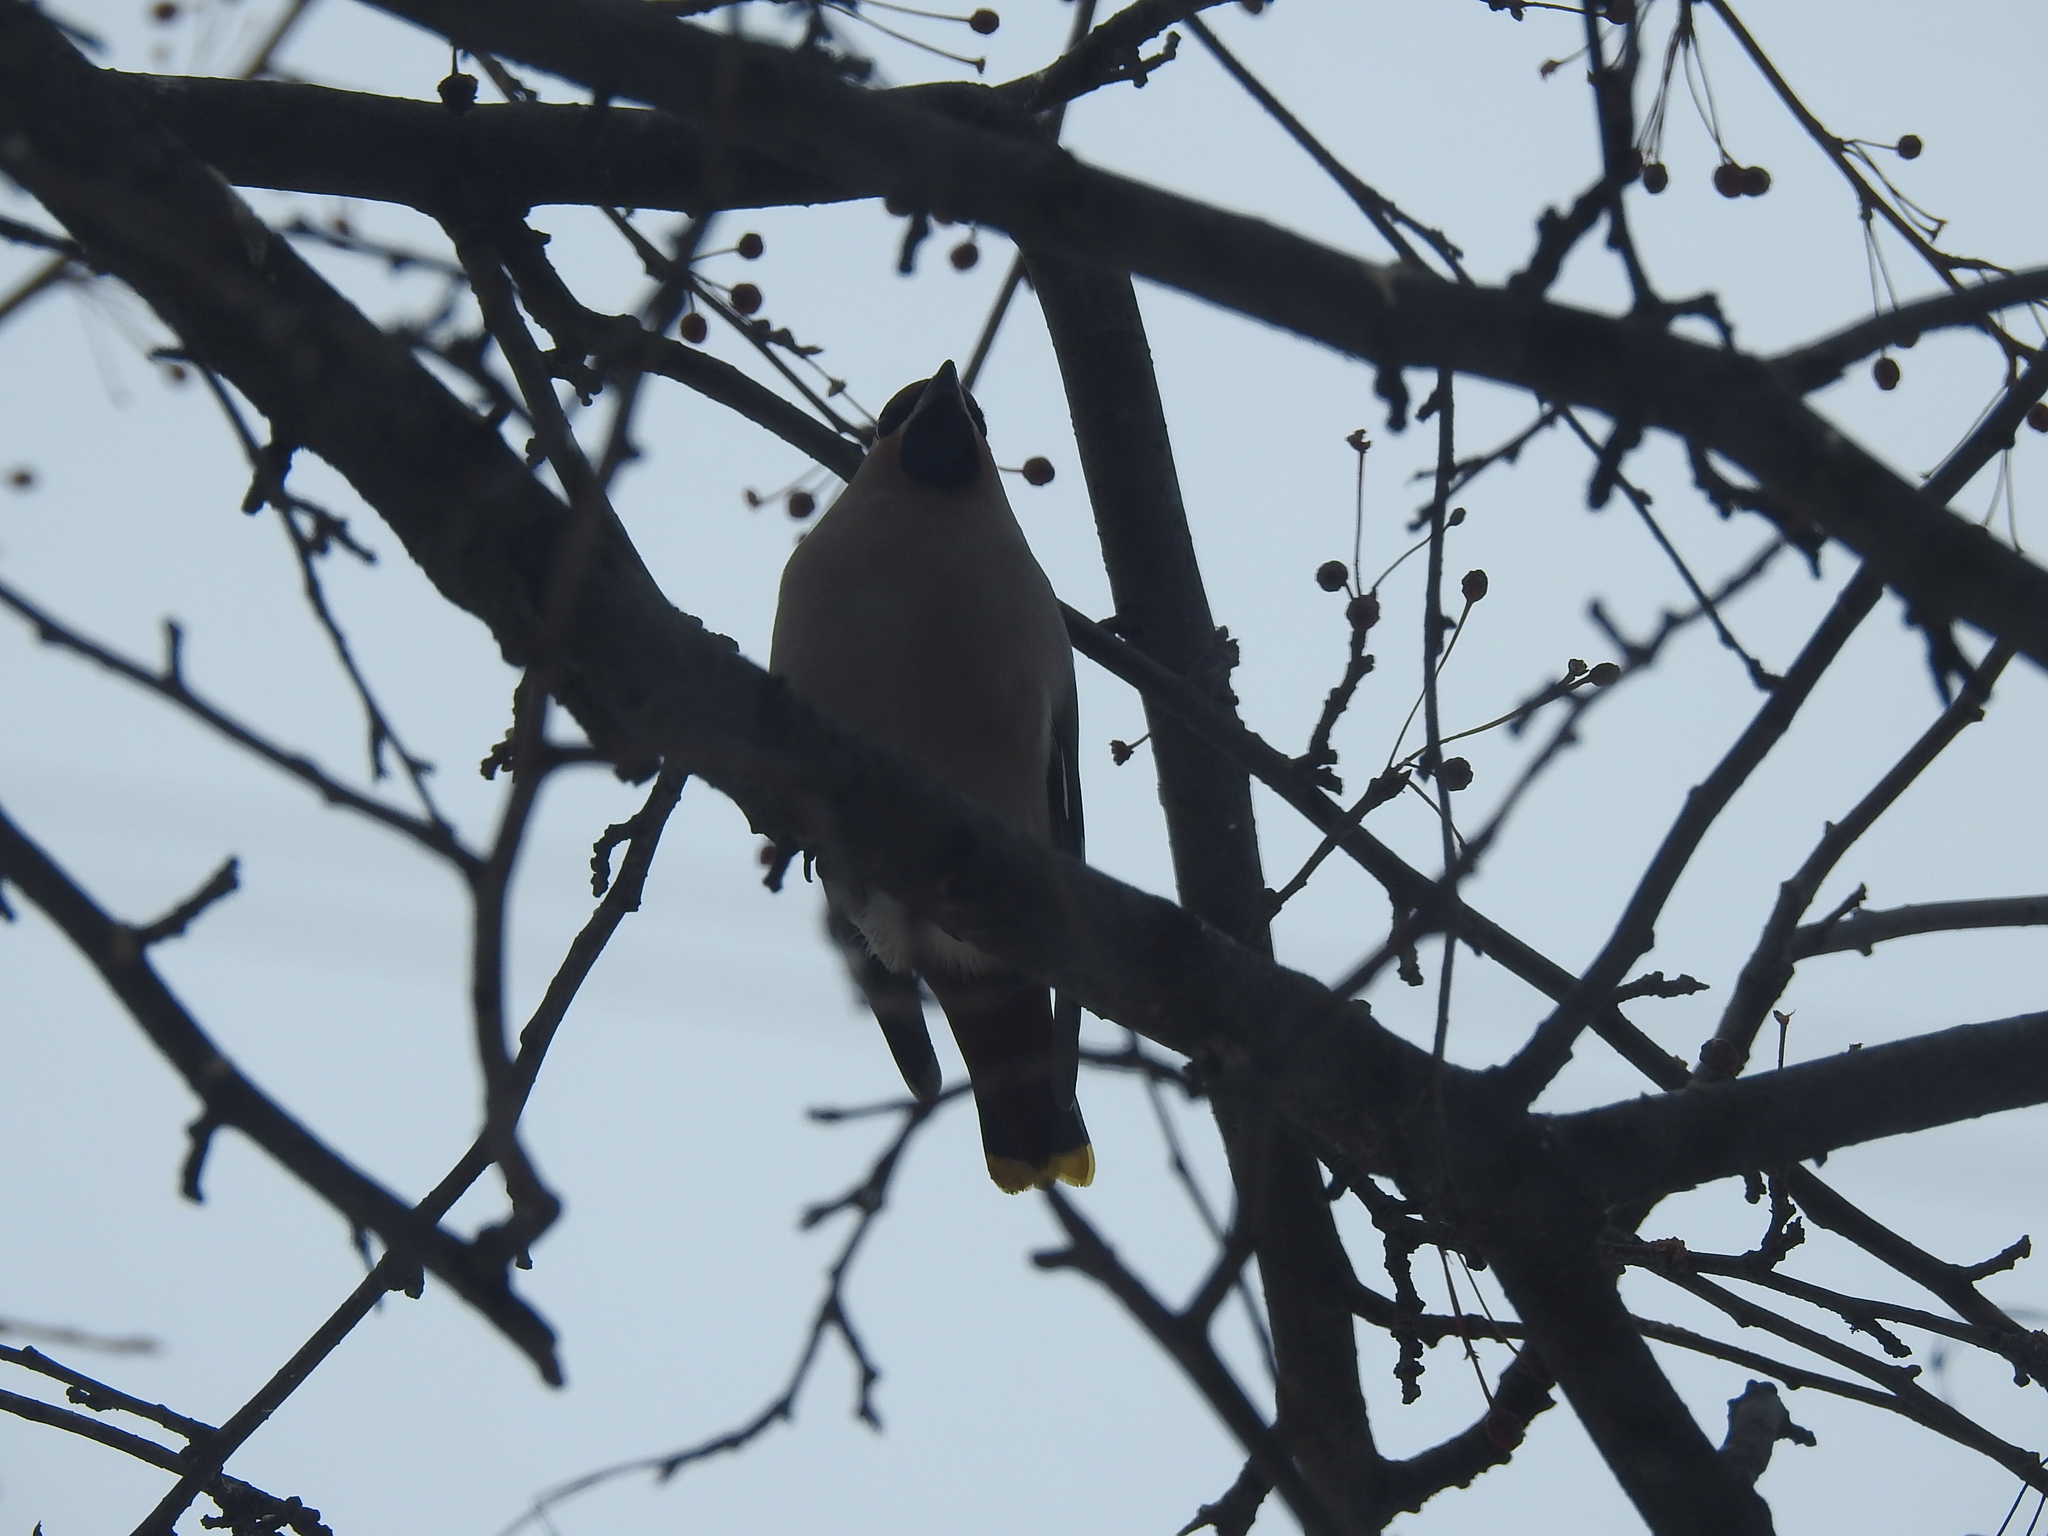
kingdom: Animalia
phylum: Chordata
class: Aves
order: Passeriformes
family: Bombycillidae
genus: Bombycilla
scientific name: Bombycilla garrulus
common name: Bohemian waxwing
